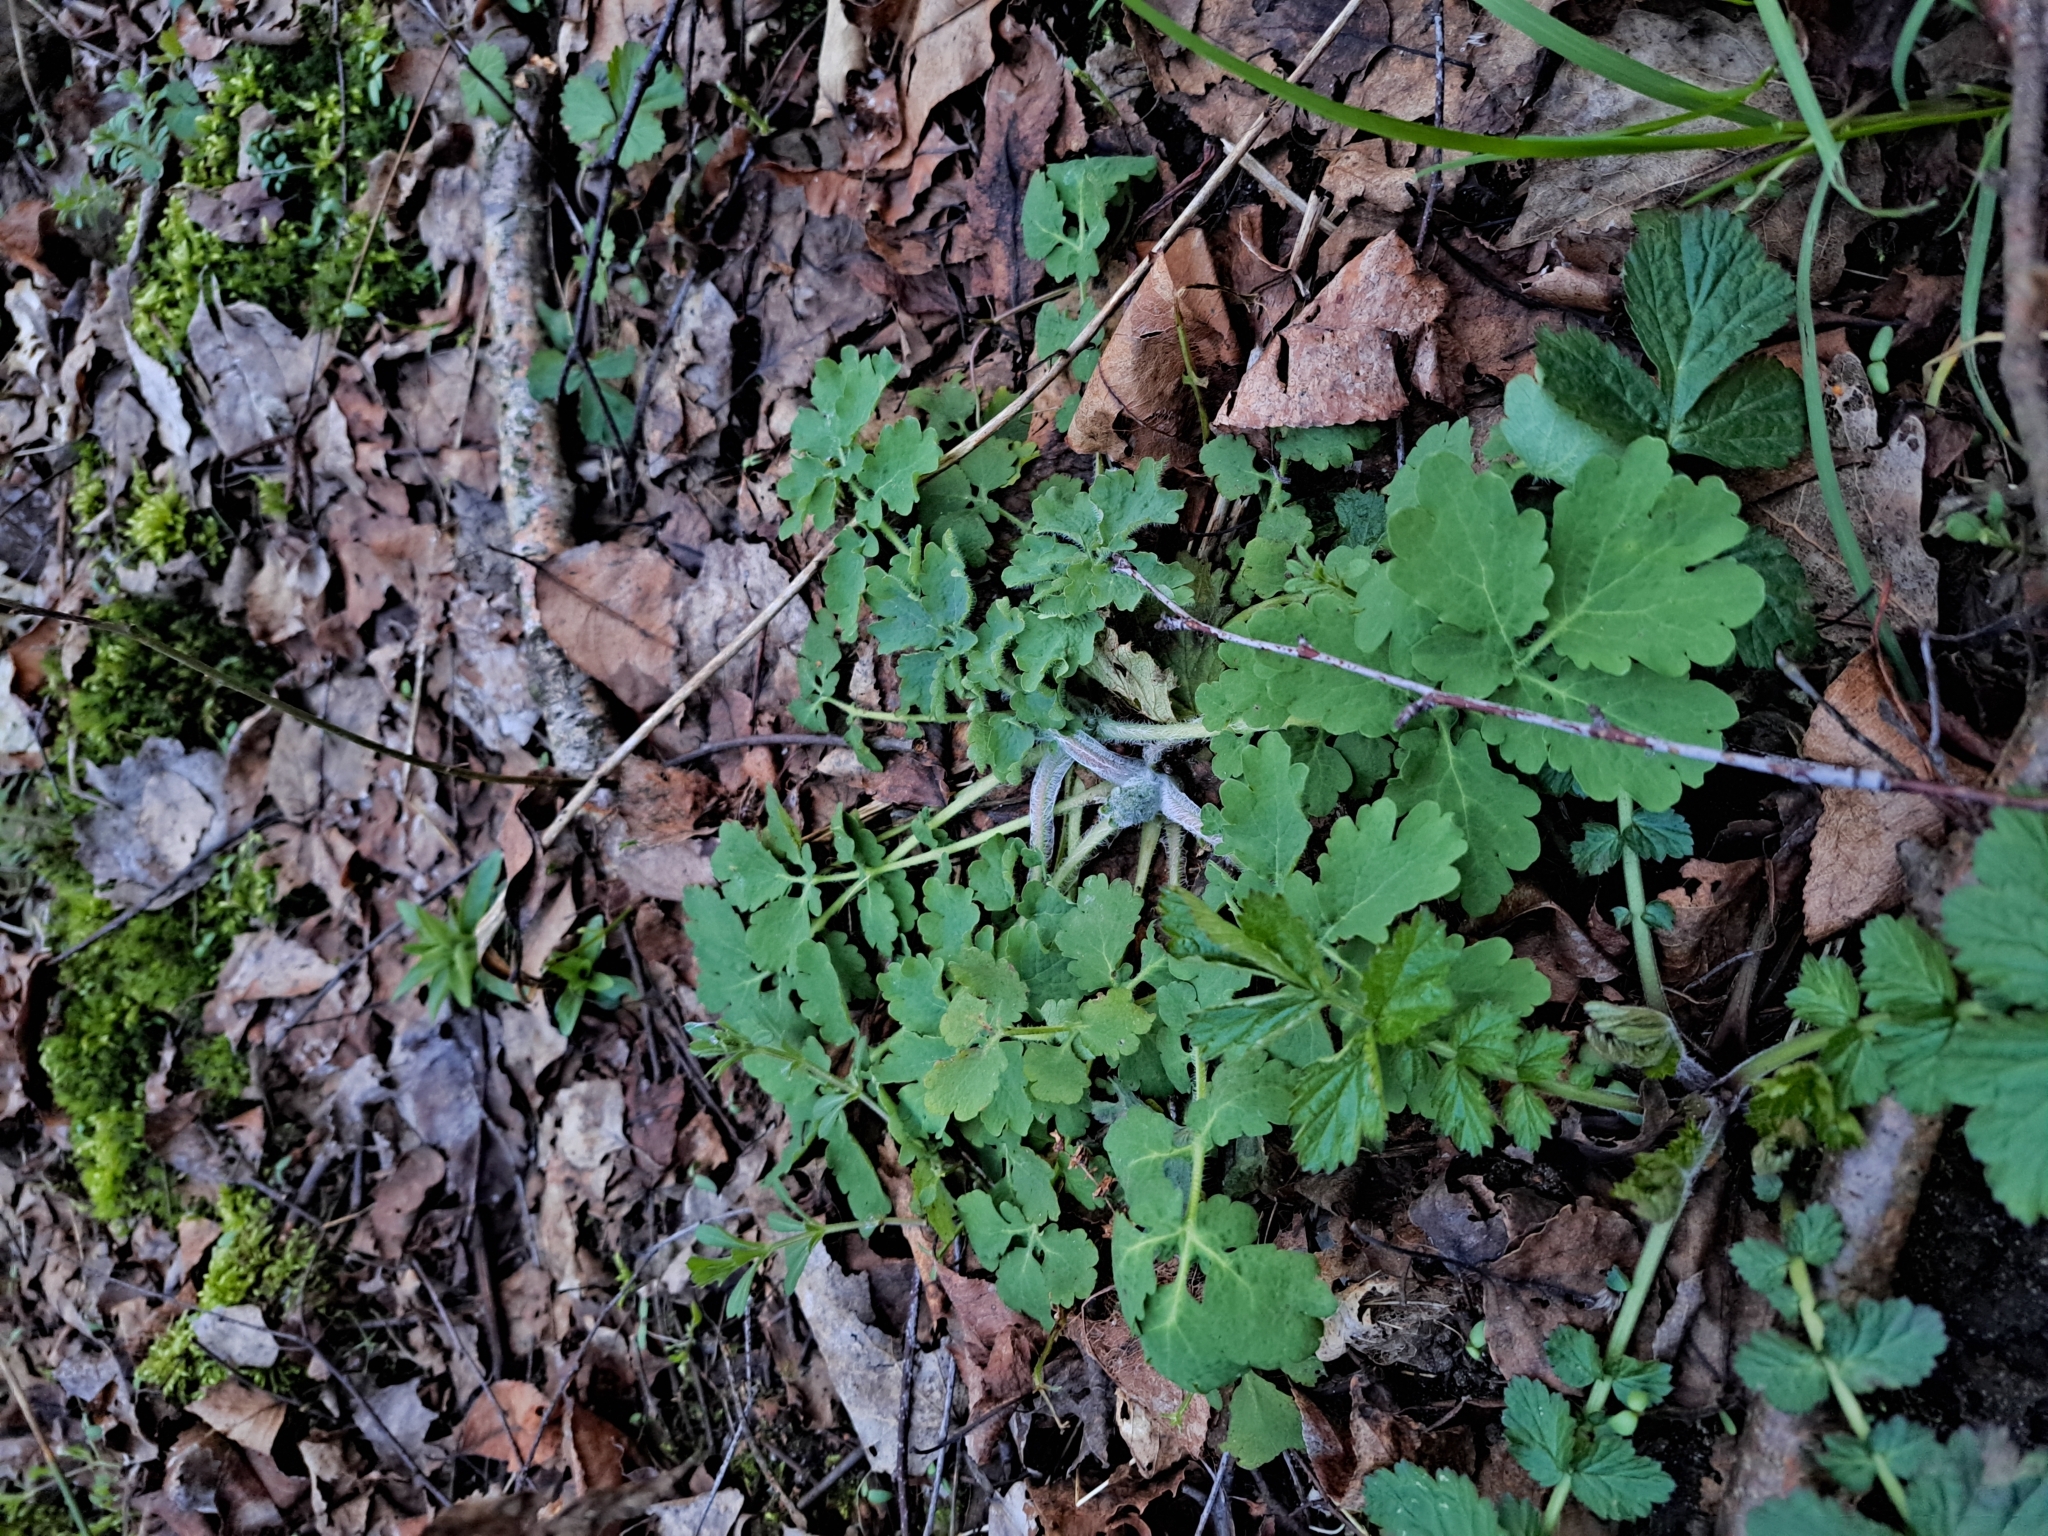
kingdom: Plantae
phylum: Tracheophyta
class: Magnoliopsida
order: Ranunculales
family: Papaveraceae
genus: Chelidonium
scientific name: Chelidonium majus
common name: Greater celandine
